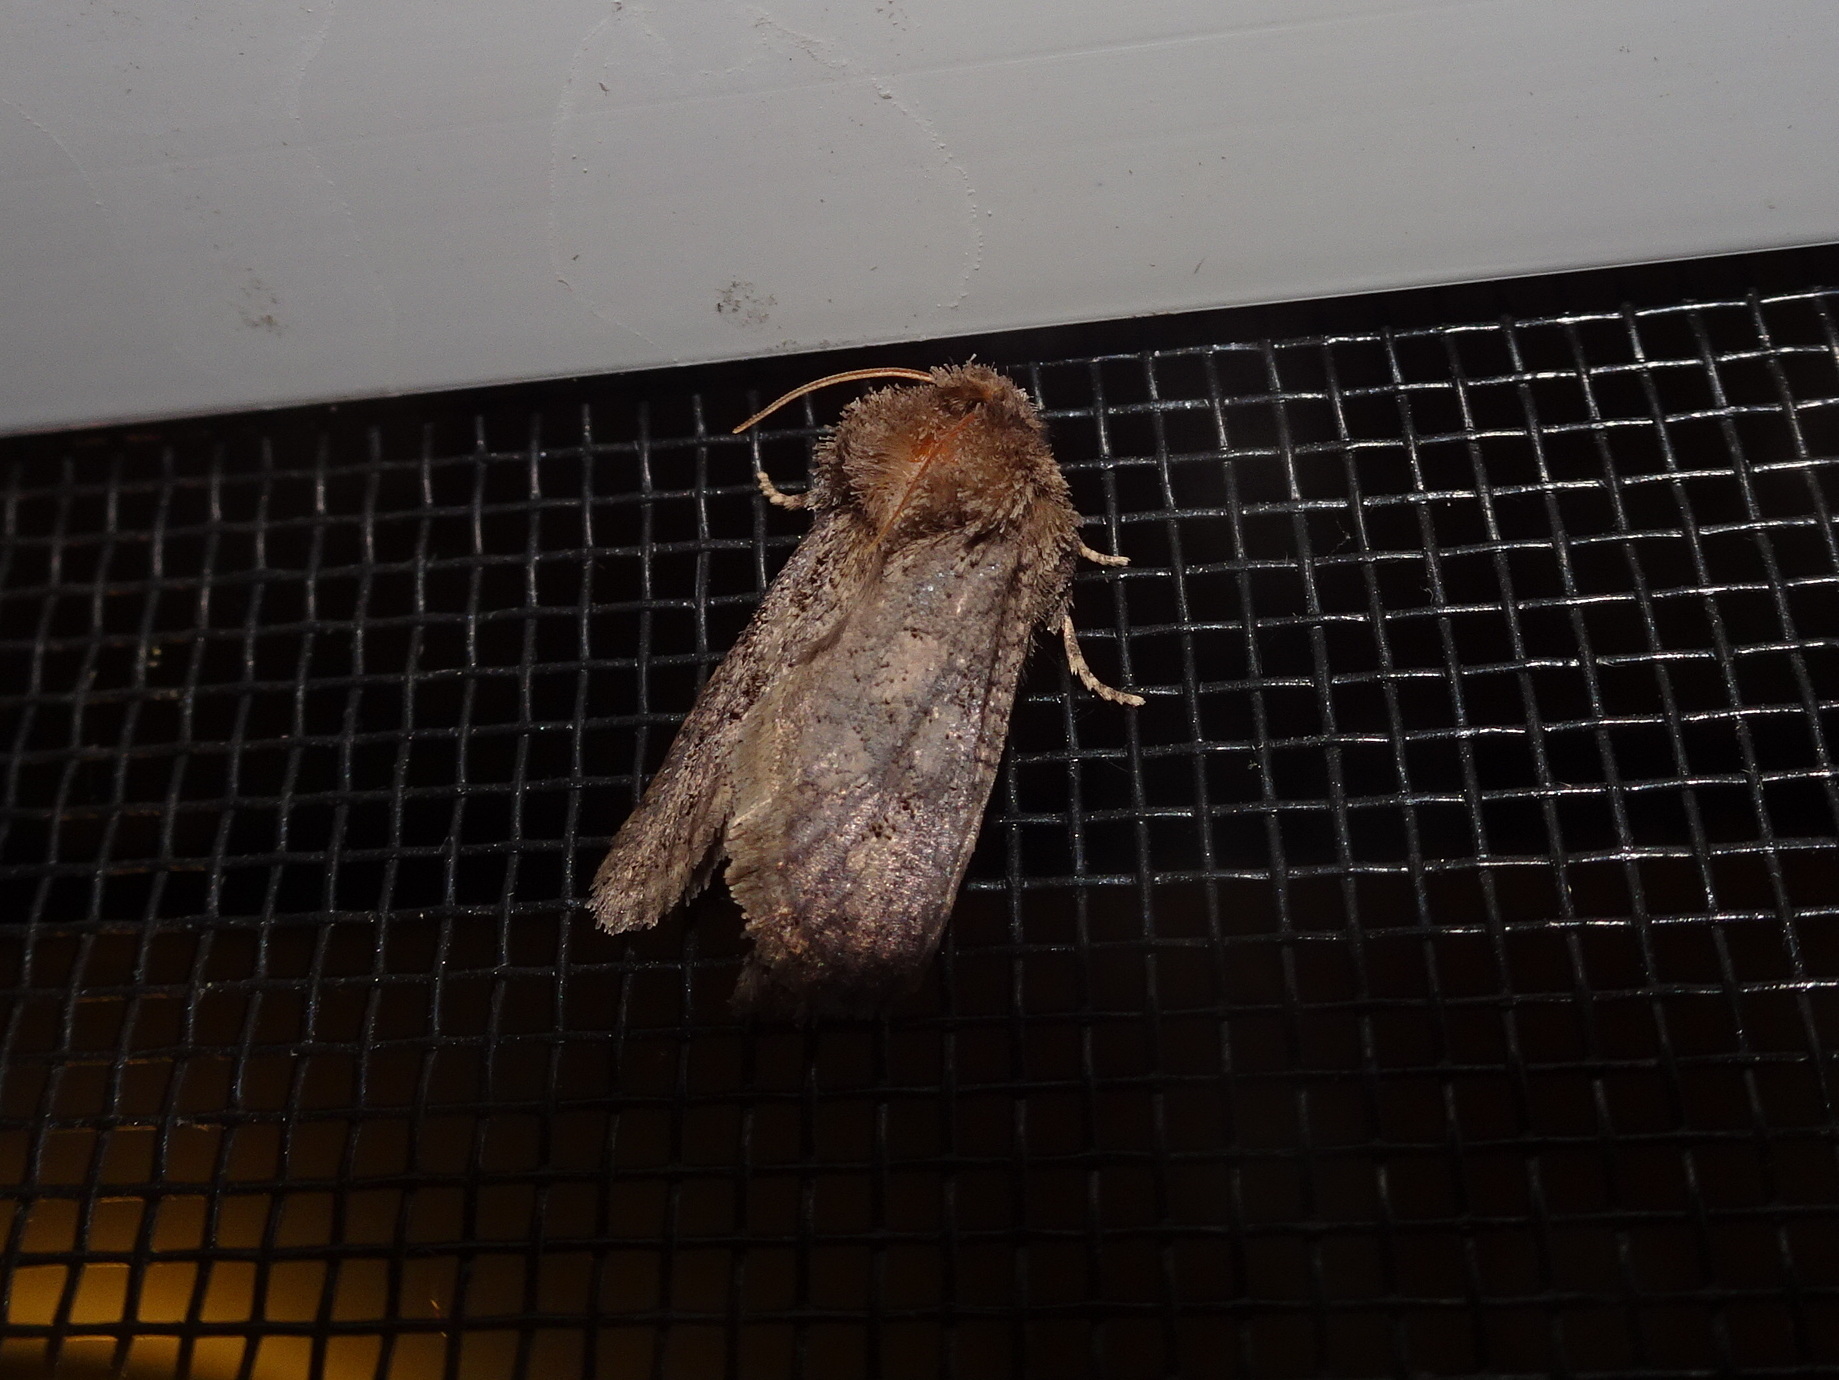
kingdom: Animalia
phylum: Arthropoda
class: Insecta
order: Lepidoptera
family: Tineidae
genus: Acrolophus
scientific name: Acrolophus arcanella
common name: Arcane grass tubeworm moth
